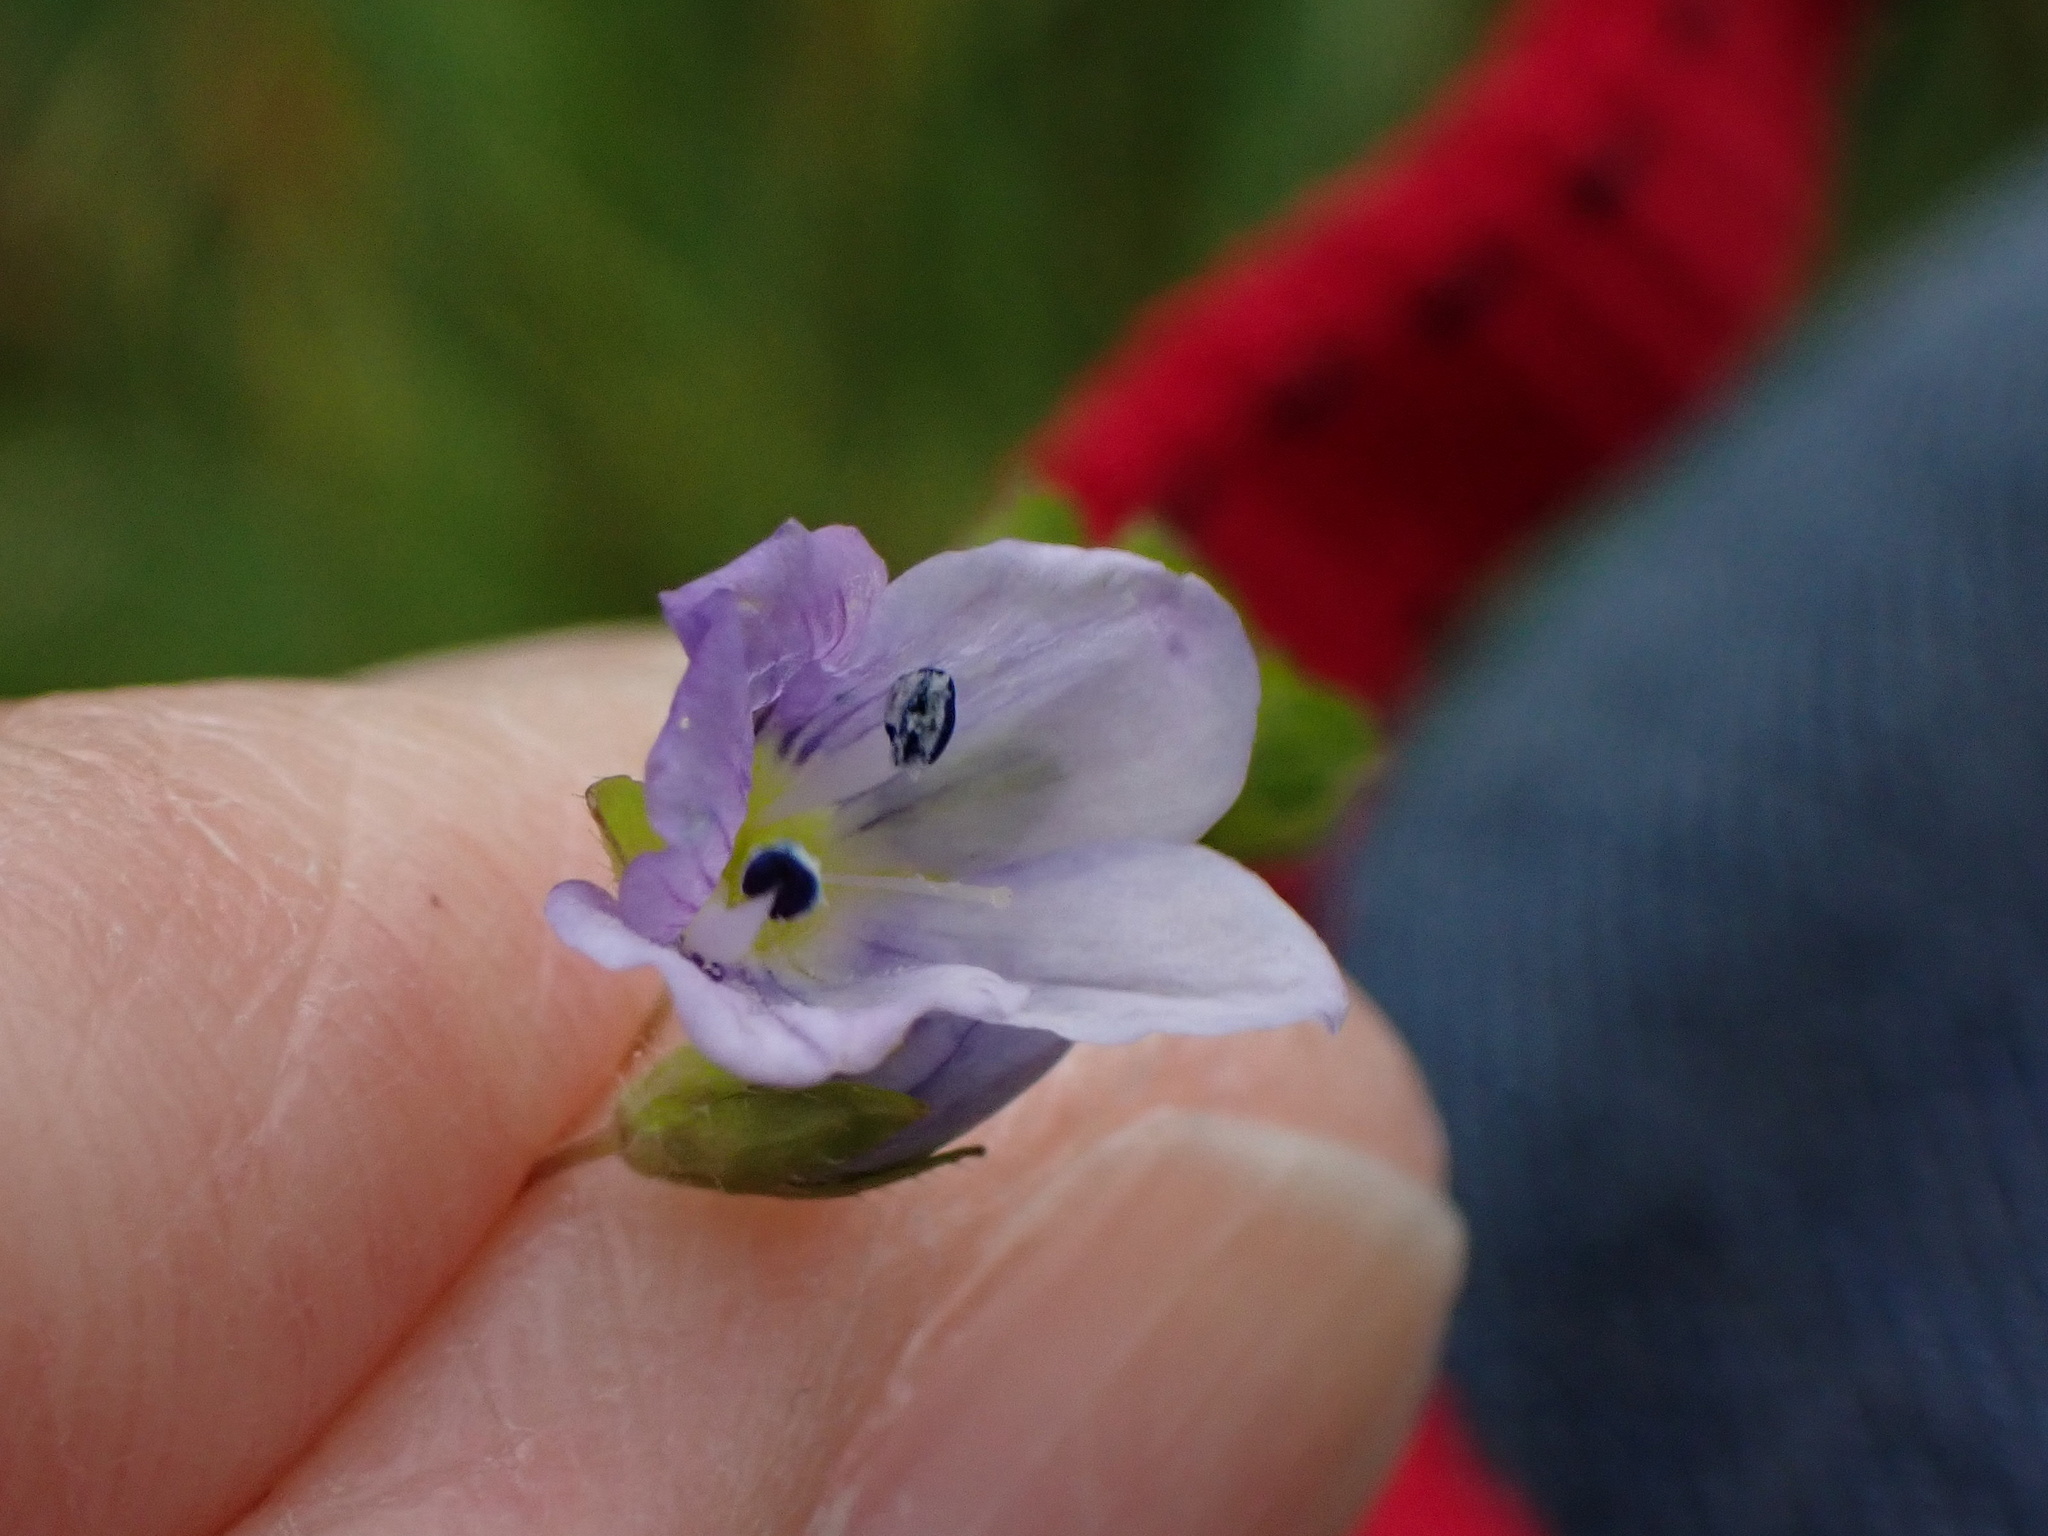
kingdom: Plantae
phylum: Tracheophyta
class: Magnoliopsida
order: Lamiales
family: Plantaginaceae
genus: Veronica
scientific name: Veronica filiformis
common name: Slender speedwell
